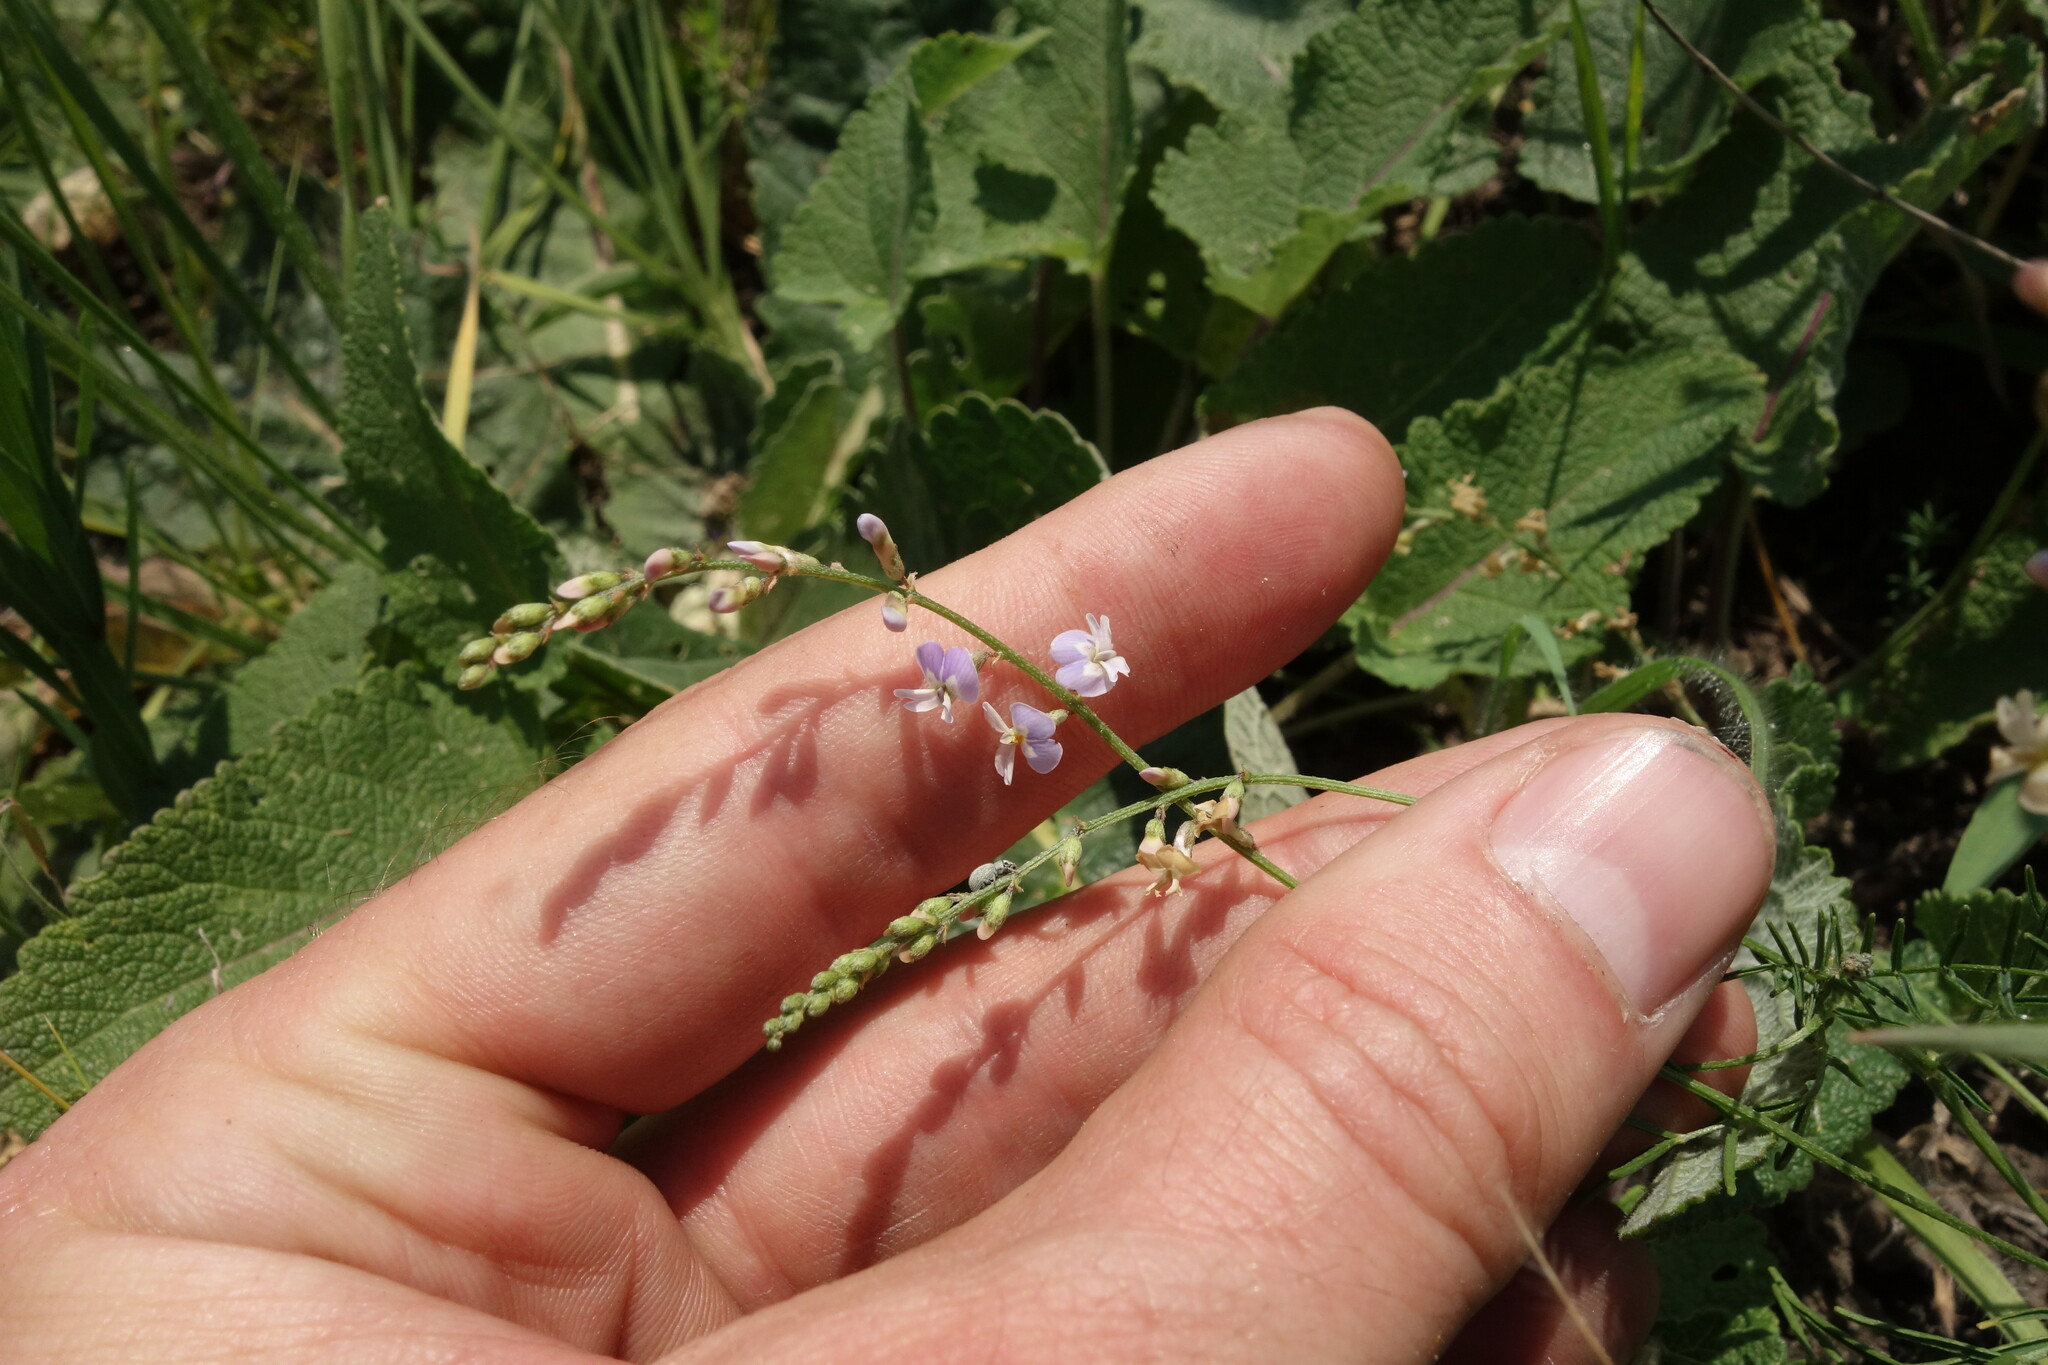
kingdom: Plantae
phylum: Tracheophyta
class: Magnoliopsida
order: Fabales
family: Fabaceae
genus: Astragalus
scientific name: Astragalus austriacus
